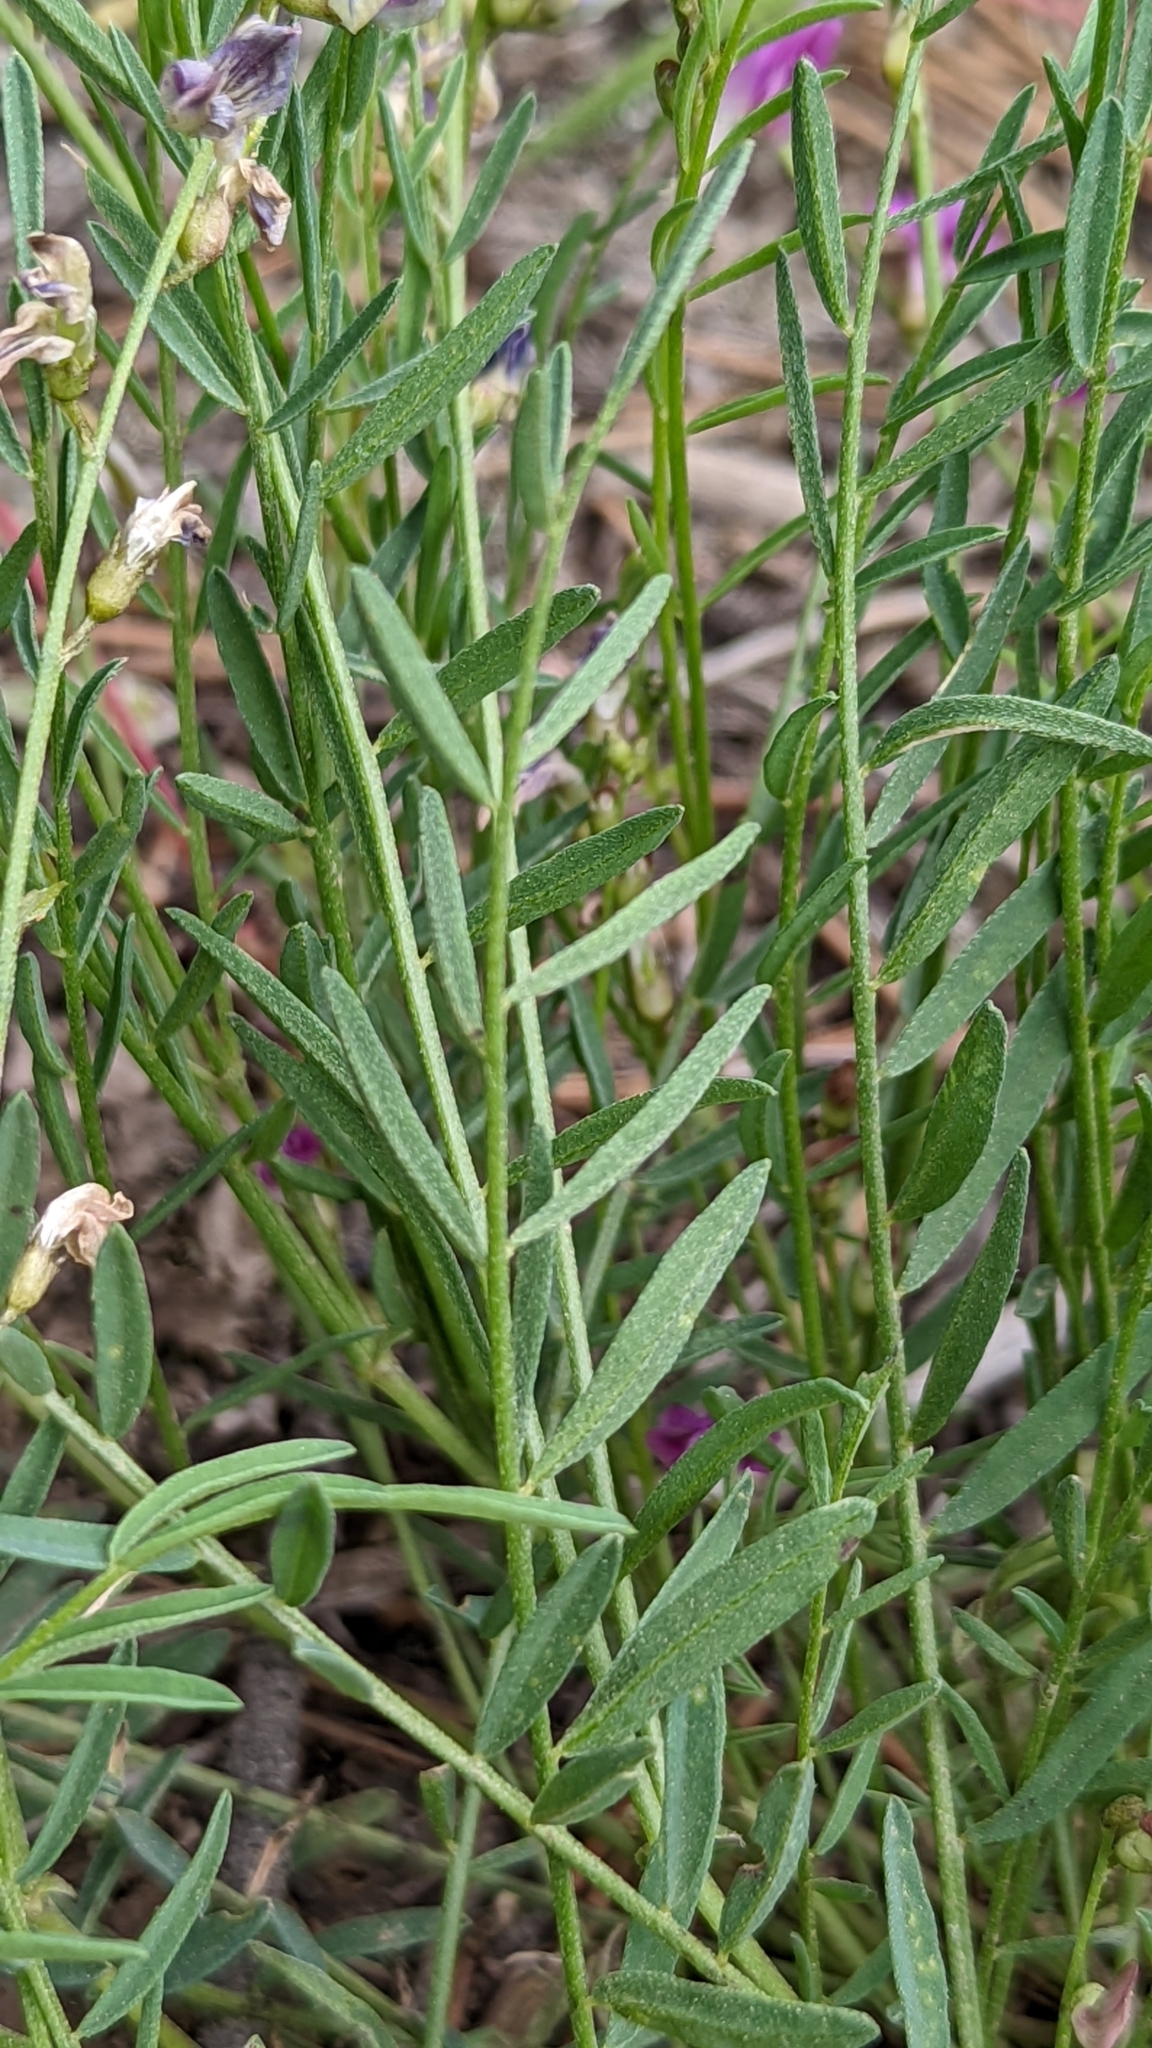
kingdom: Plantae
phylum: Tracheophyta
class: Magnoliopsida
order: Fabales
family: Fabaceae
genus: Astragalus
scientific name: Astragalus miser
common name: Timber milkvetch
